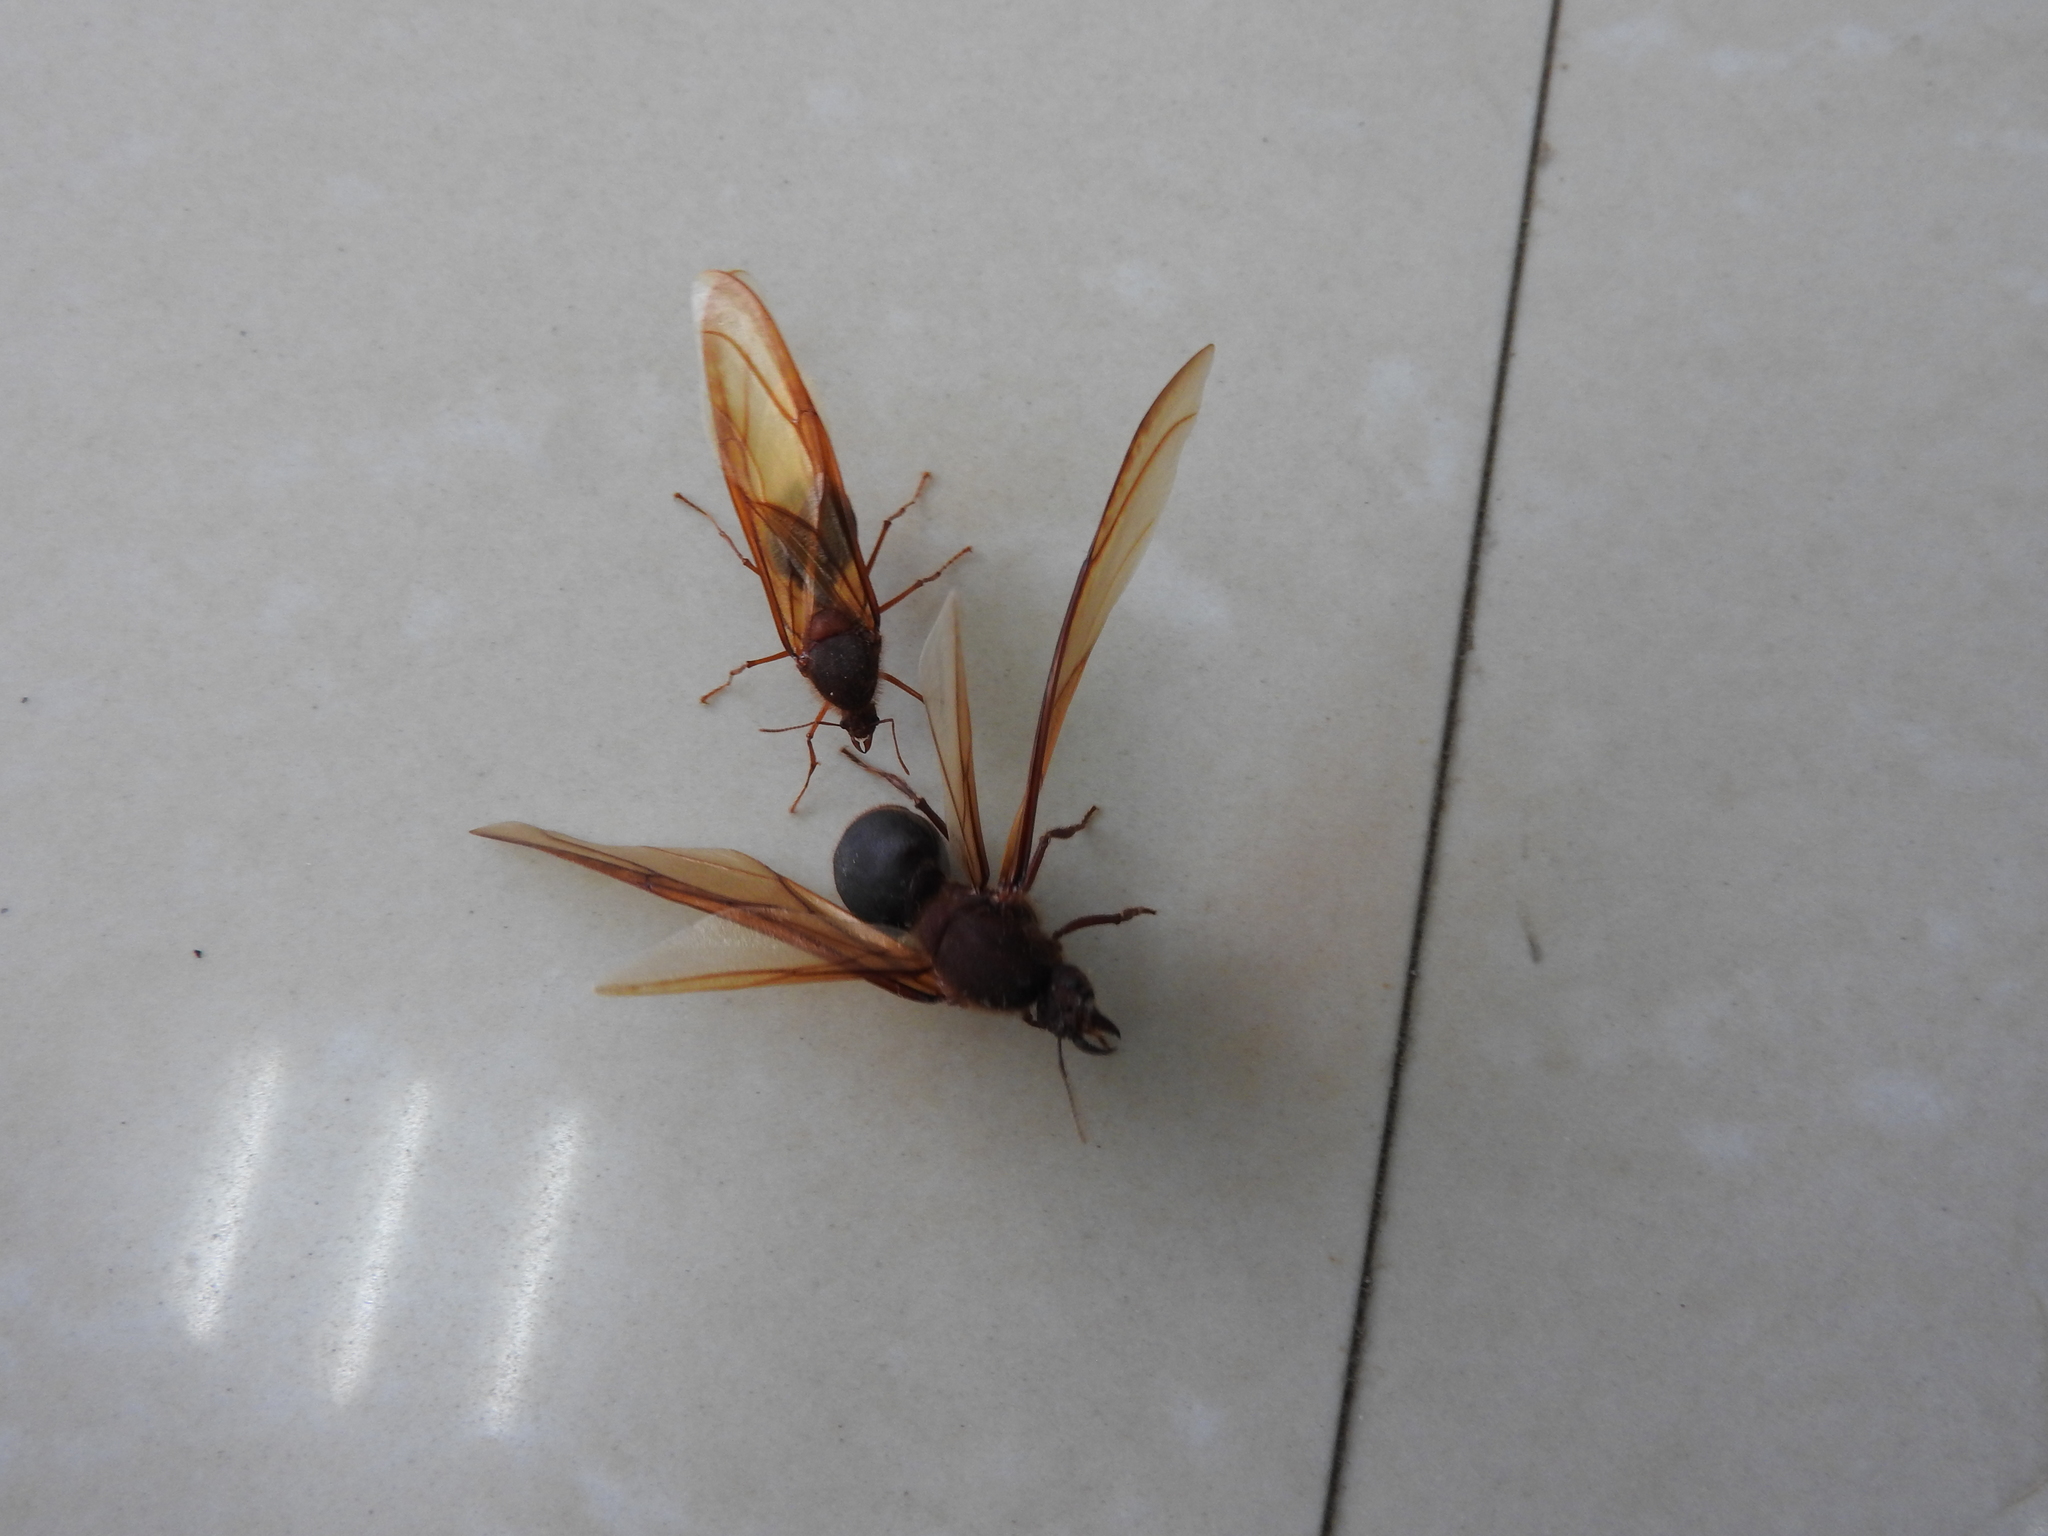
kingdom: Animalia
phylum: Arthropoda
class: Insecta
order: Hymenoptera
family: Formicidae
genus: Atta
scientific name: Atta mexicana
